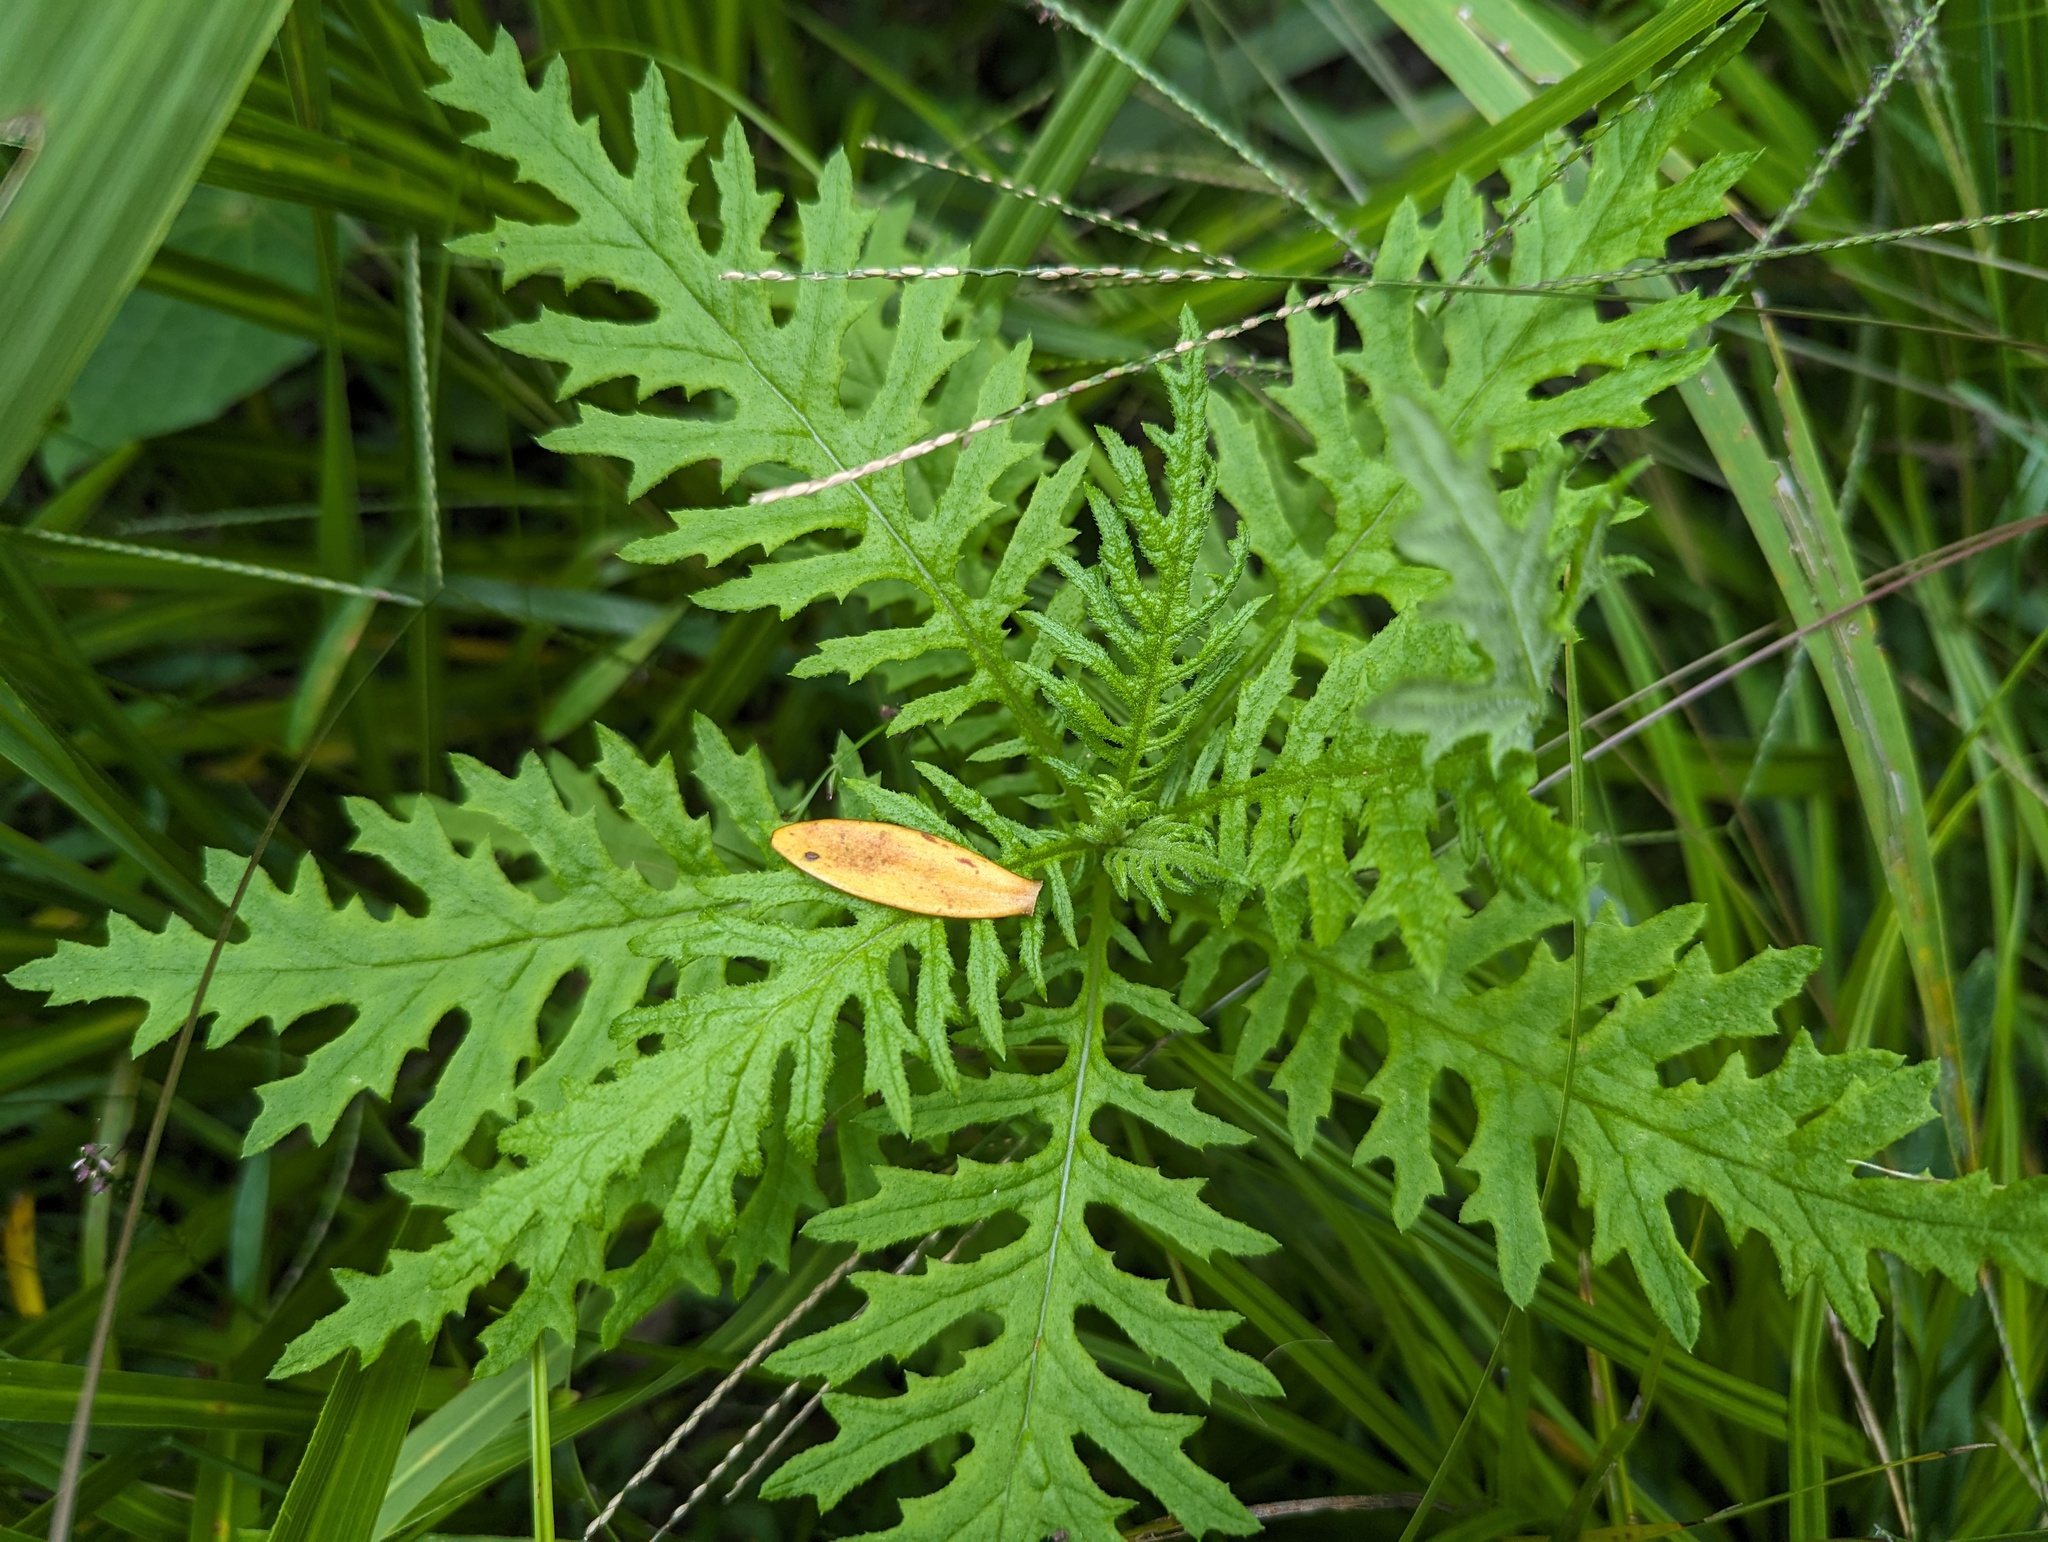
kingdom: Plantae
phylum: Tracheophyta
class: Magnoliopsida
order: Asterales
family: Asteraceae
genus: Senecio
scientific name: Senecio bipinnatisectus
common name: Australian fireweed
